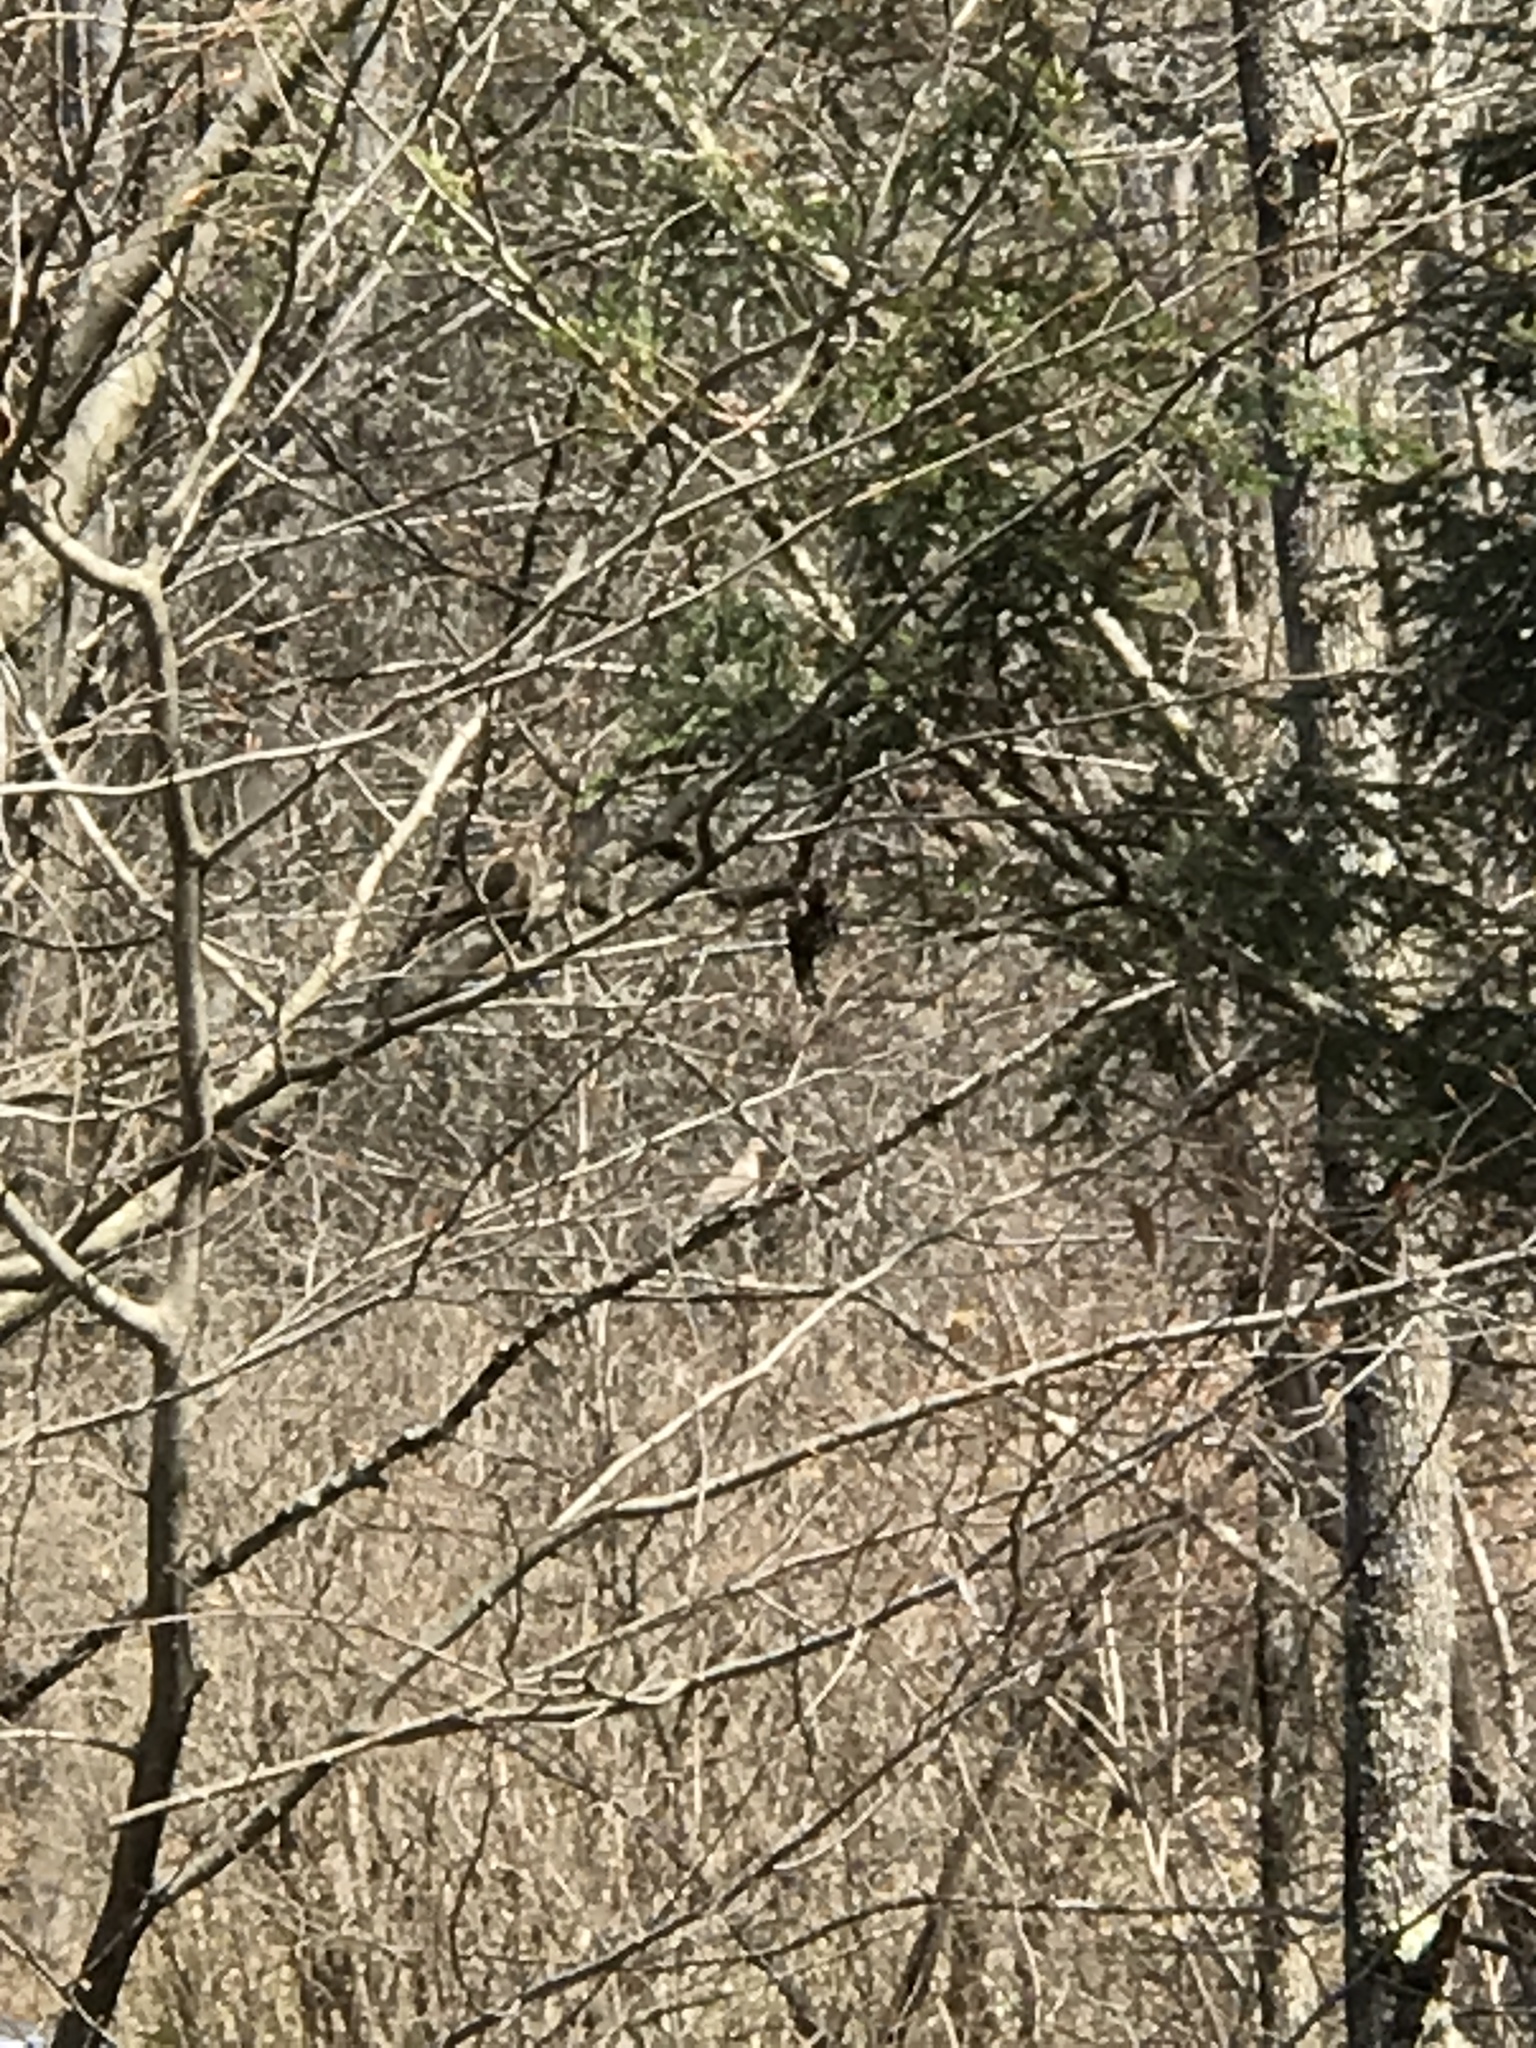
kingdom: Animalia
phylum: Chordata
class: Aves
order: Columbiformes
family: Columbidae
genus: Zenaida
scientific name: Zenaida macroura
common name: Mourning dove
